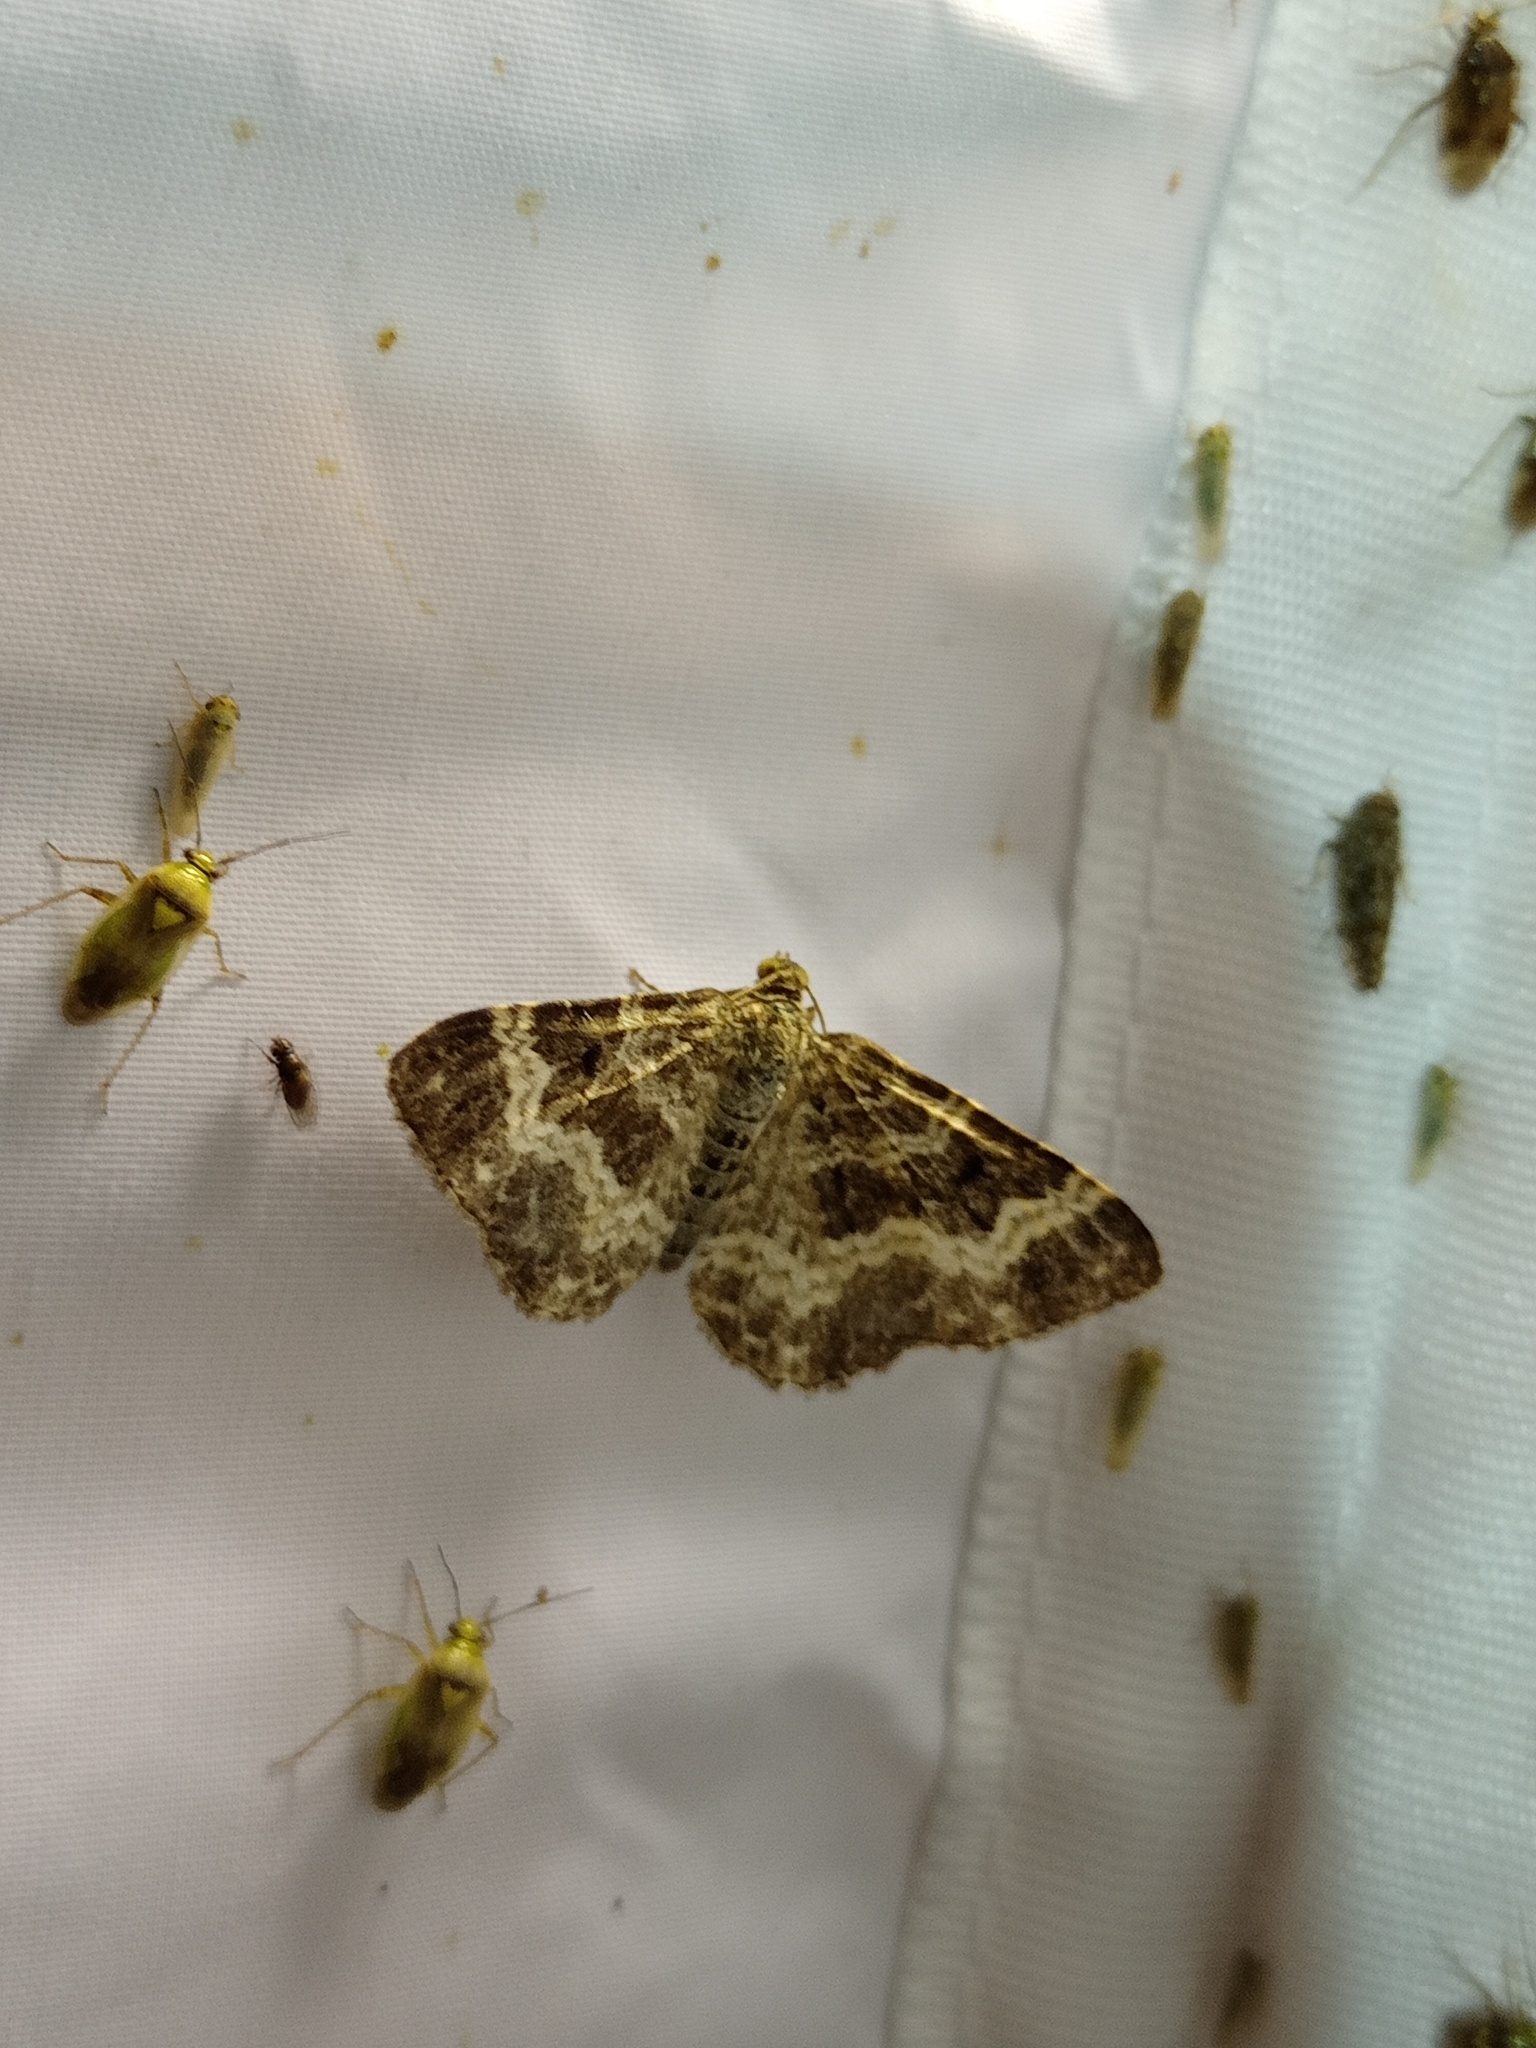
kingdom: Animalia
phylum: Arthropoda
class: Insecta
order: Lepidoptera
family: Geometridae
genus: Epirrhoe
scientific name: Epirrhoe alternata
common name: Common carpet
